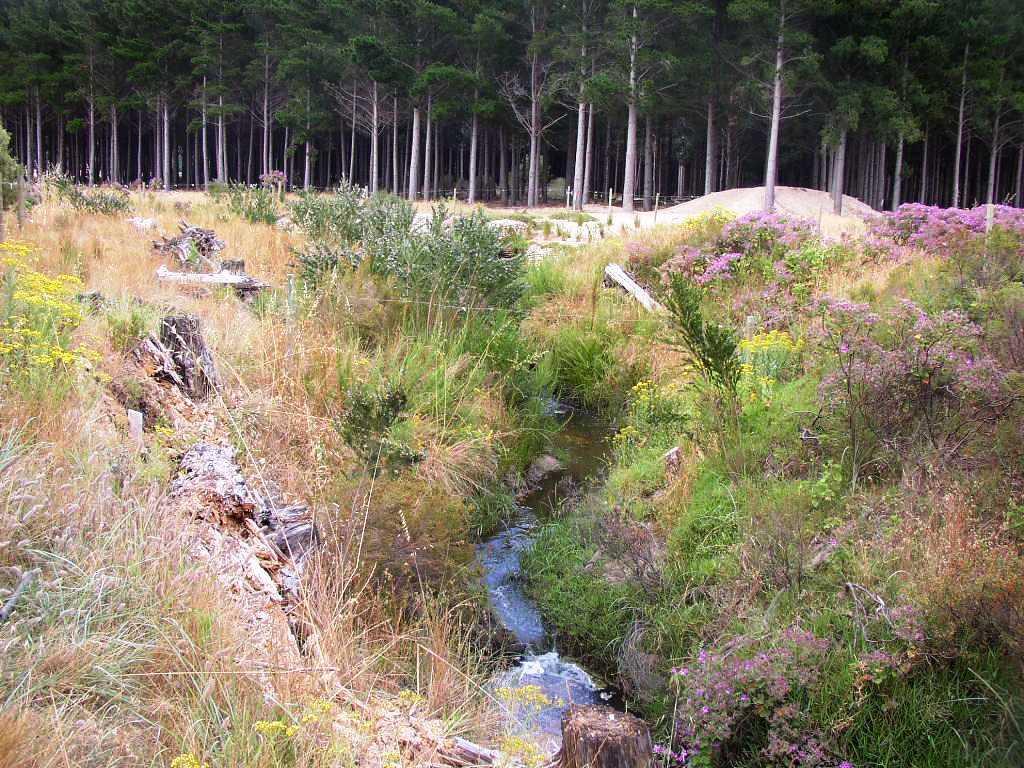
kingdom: Plantae
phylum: Tracheophyta
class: Magnoliopsida
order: Fabales
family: Fabaceae
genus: Psoralea
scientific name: Psoralea pinnata
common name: African scurfpea
